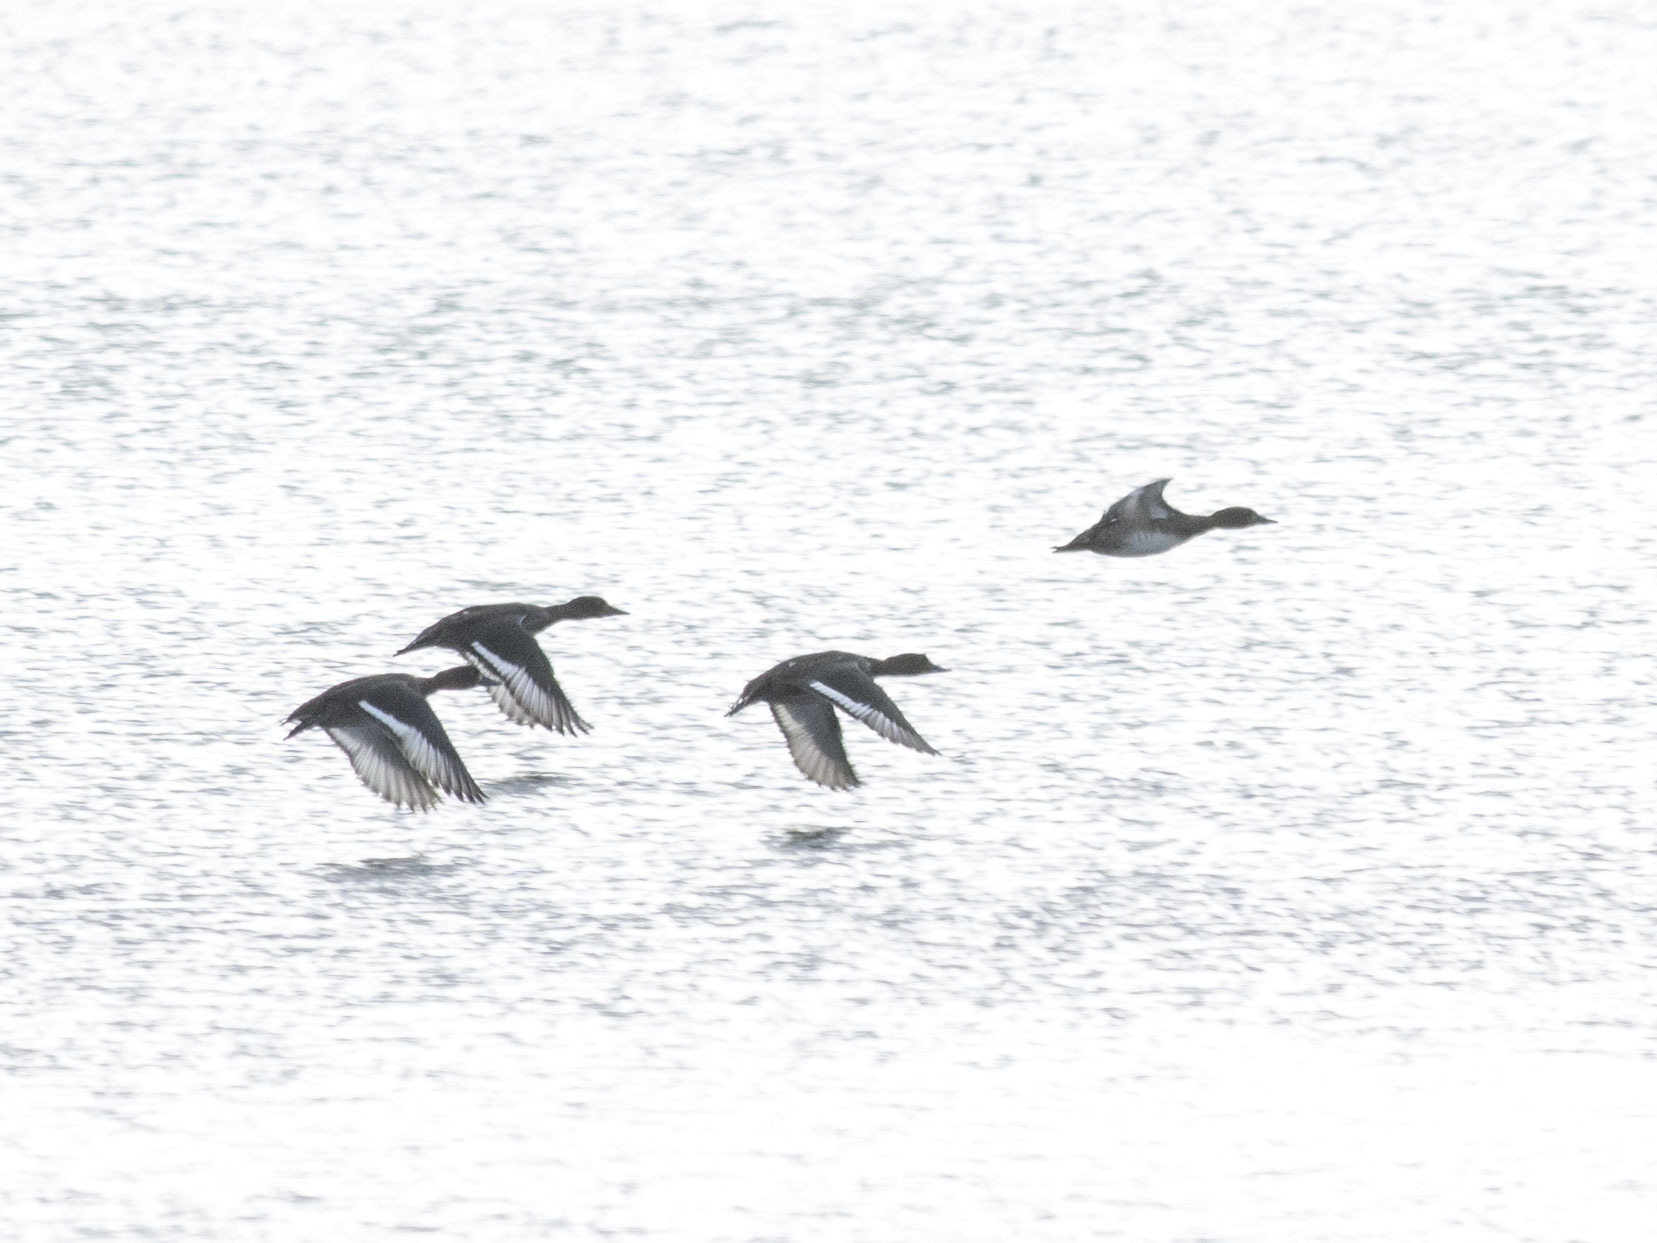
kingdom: Animalia
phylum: Chordata
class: Aves
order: Anseriformes
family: Anatidae
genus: Aythya
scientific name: Aythya fuligula
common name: Tufted duck
